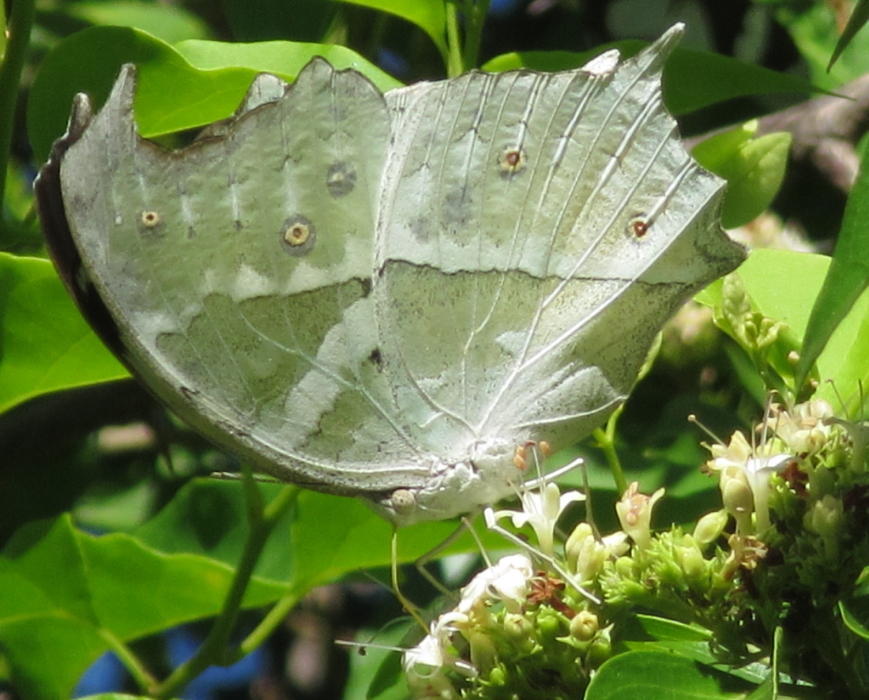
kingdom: Animalia
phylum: Arthropoda
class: Insecta
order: Lepidoptera
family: Nymphalidae
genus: Salamis
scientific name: Salamis Protogoniomorpha parhassus
